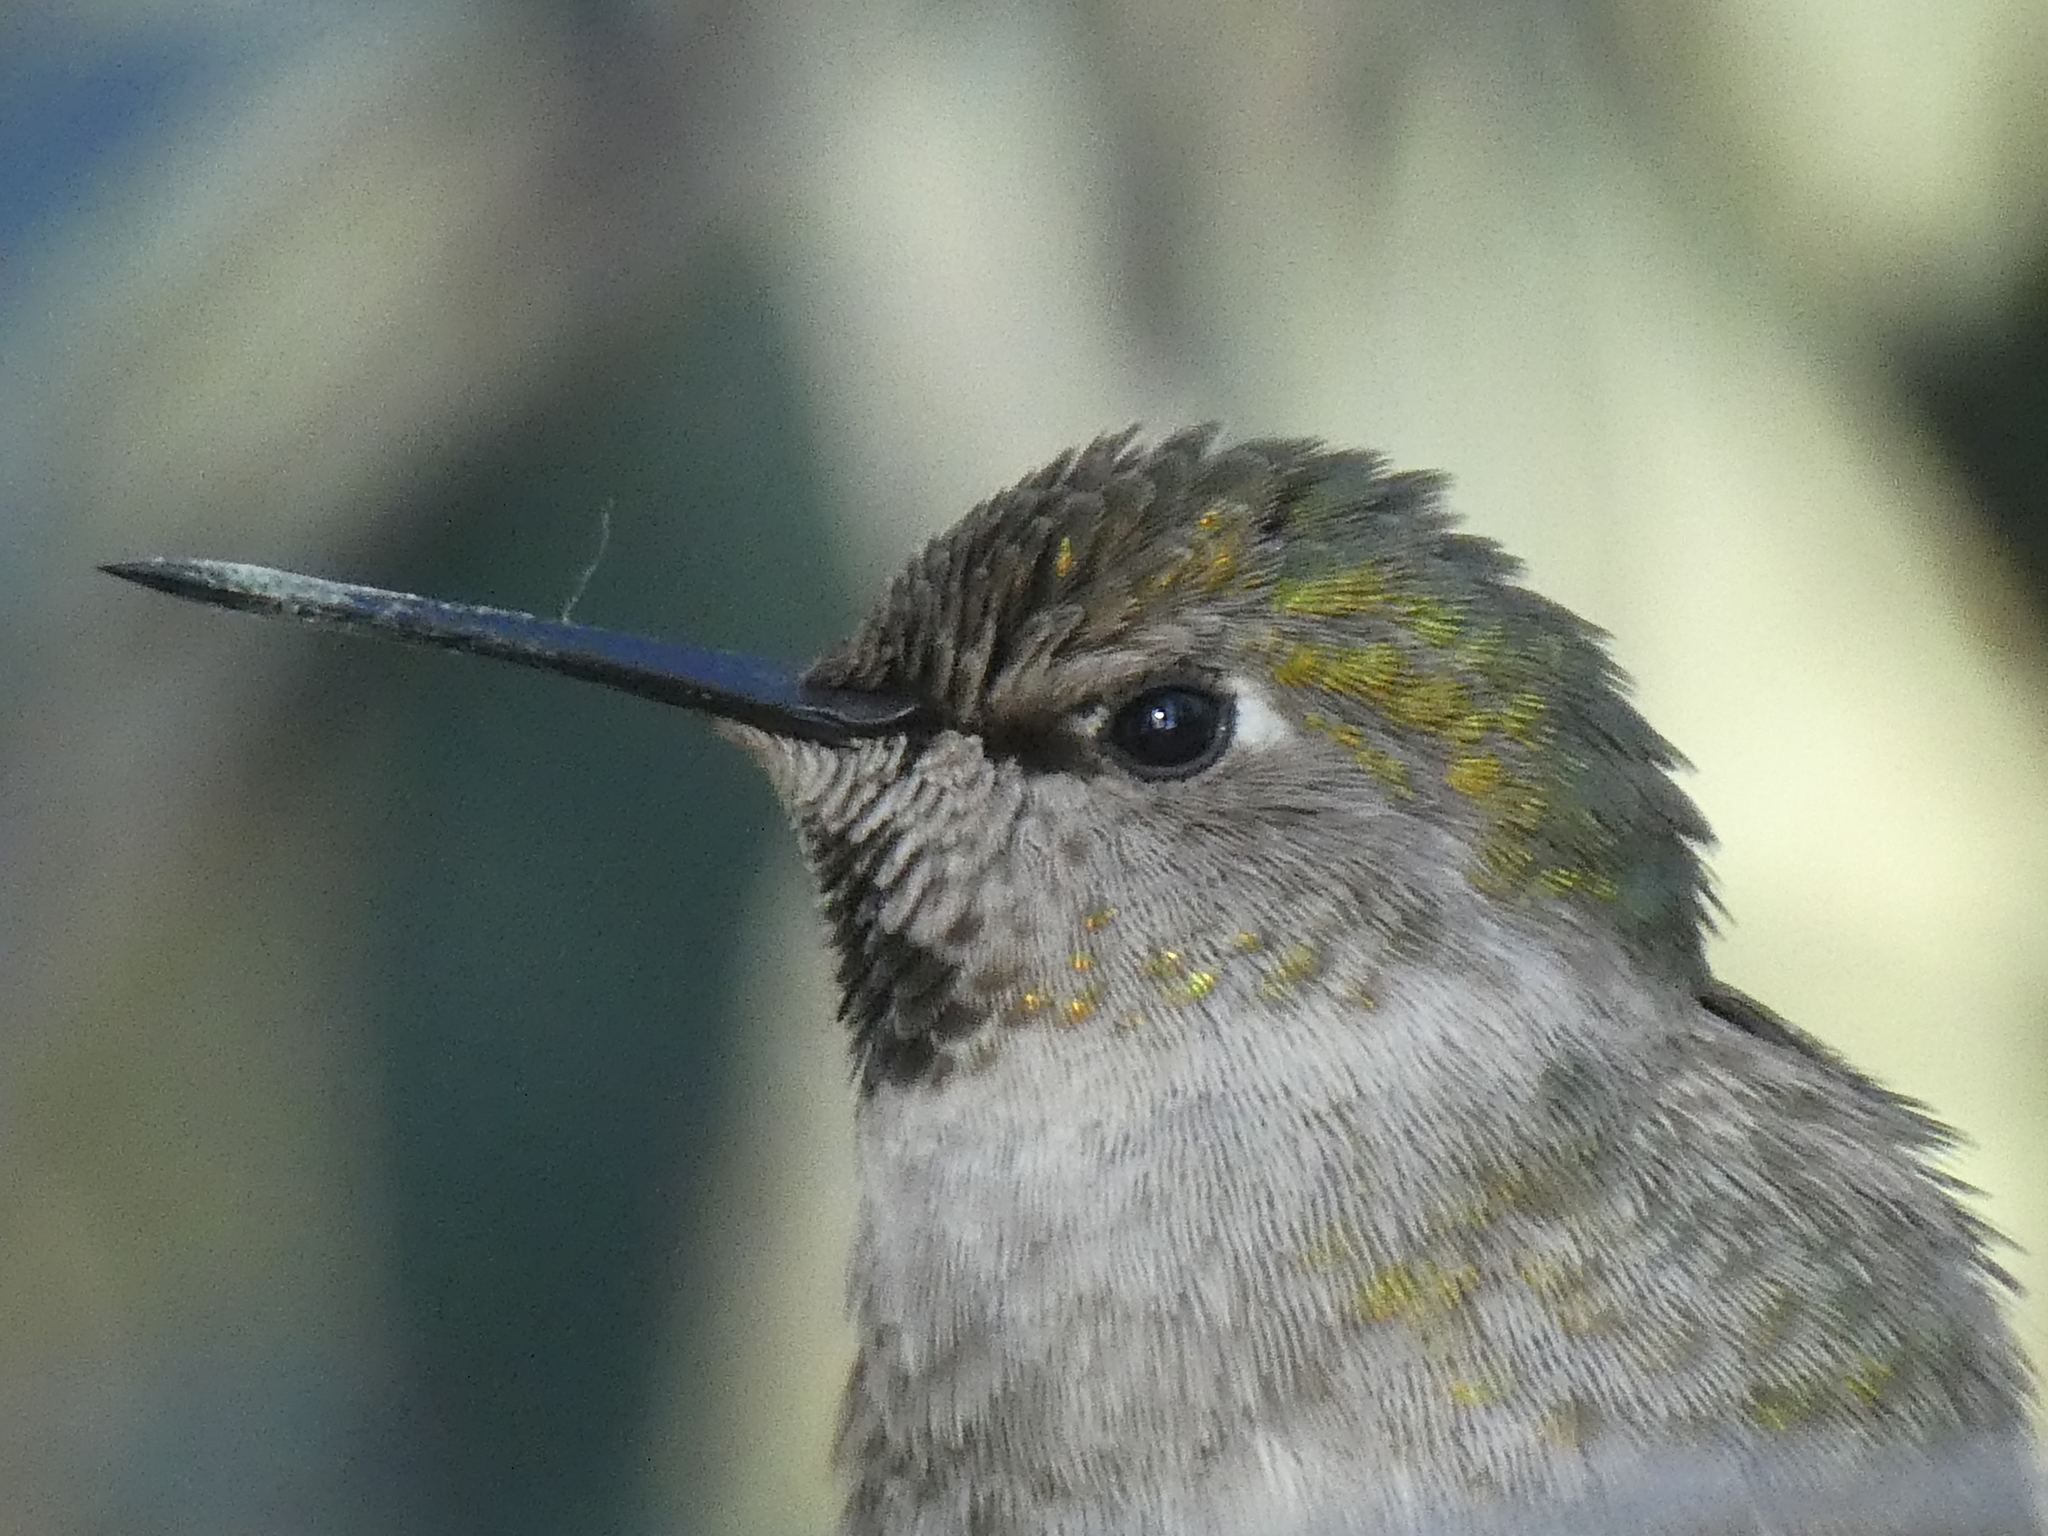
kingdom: Animalia
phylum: Chordata
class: Aves
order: Apodiformes
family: Trochilidae
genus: Calypte
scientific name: Calypte anna
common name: Anna's hummingbird
